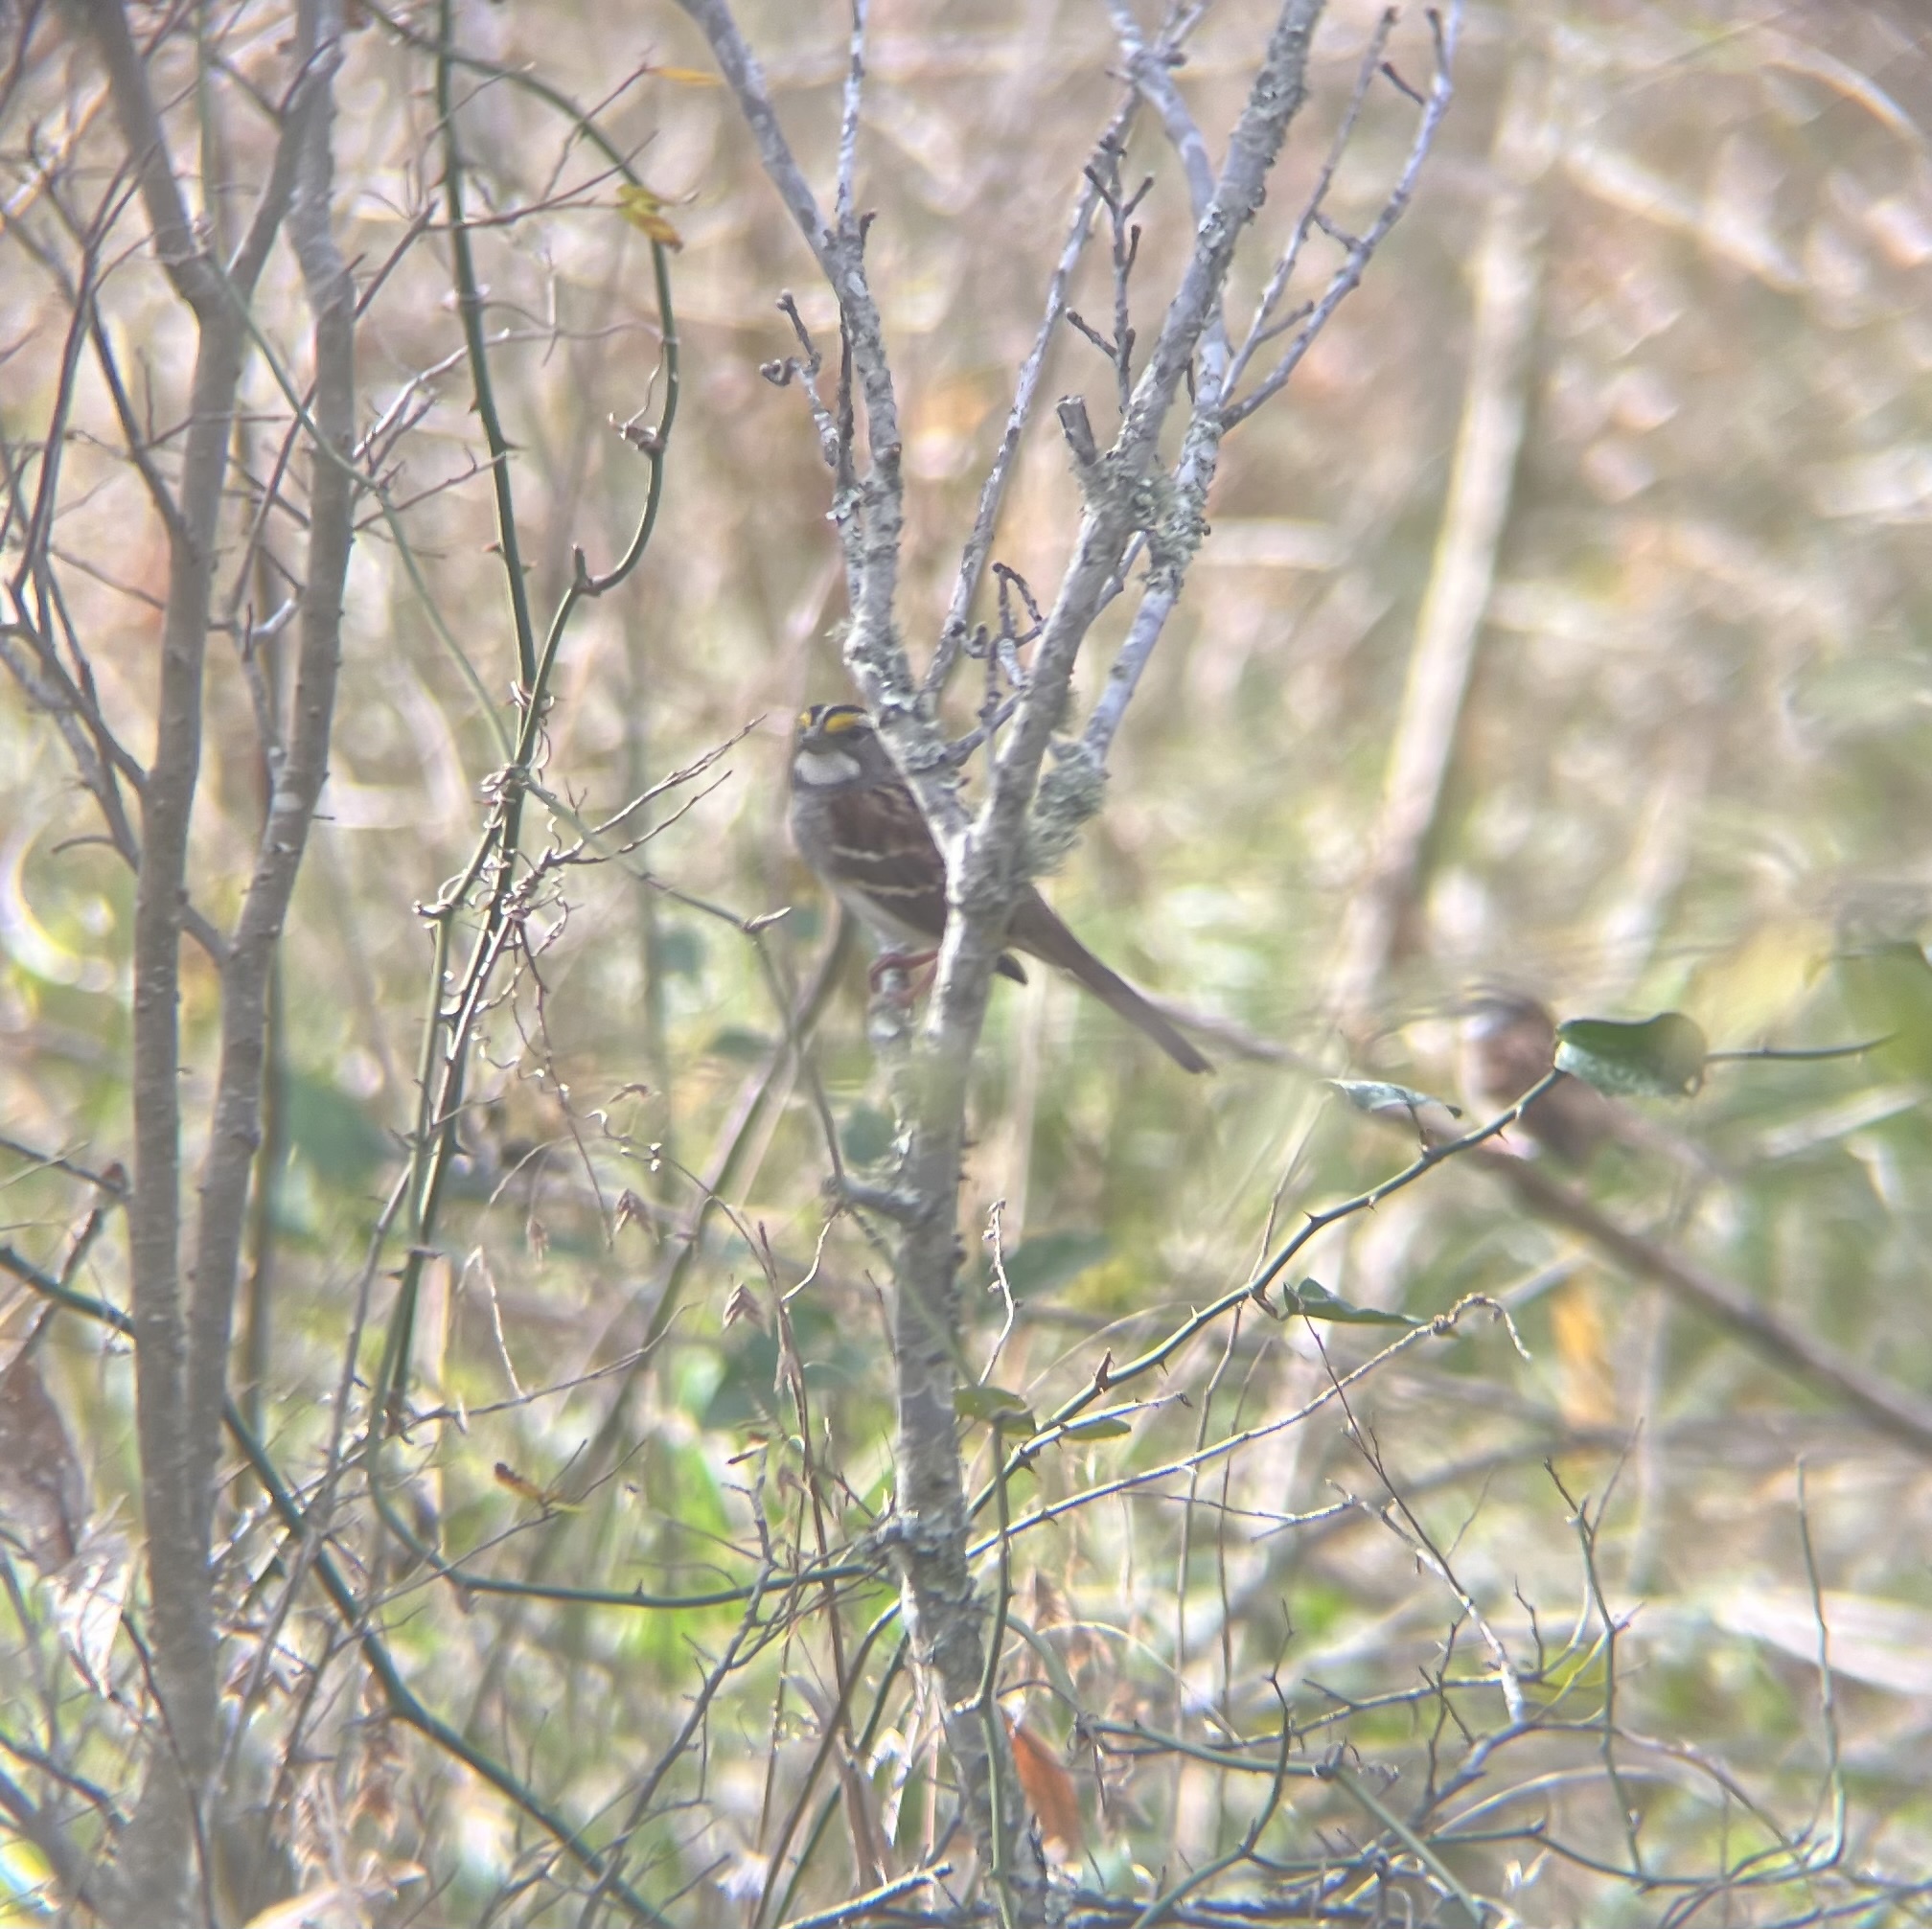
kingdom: Animalia
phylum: Chordata
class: Aves
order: Passeriformes
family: Passerellidae
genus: Zonotrichia
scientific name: Zonotrichia albicollis
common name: White-throated sparrow
